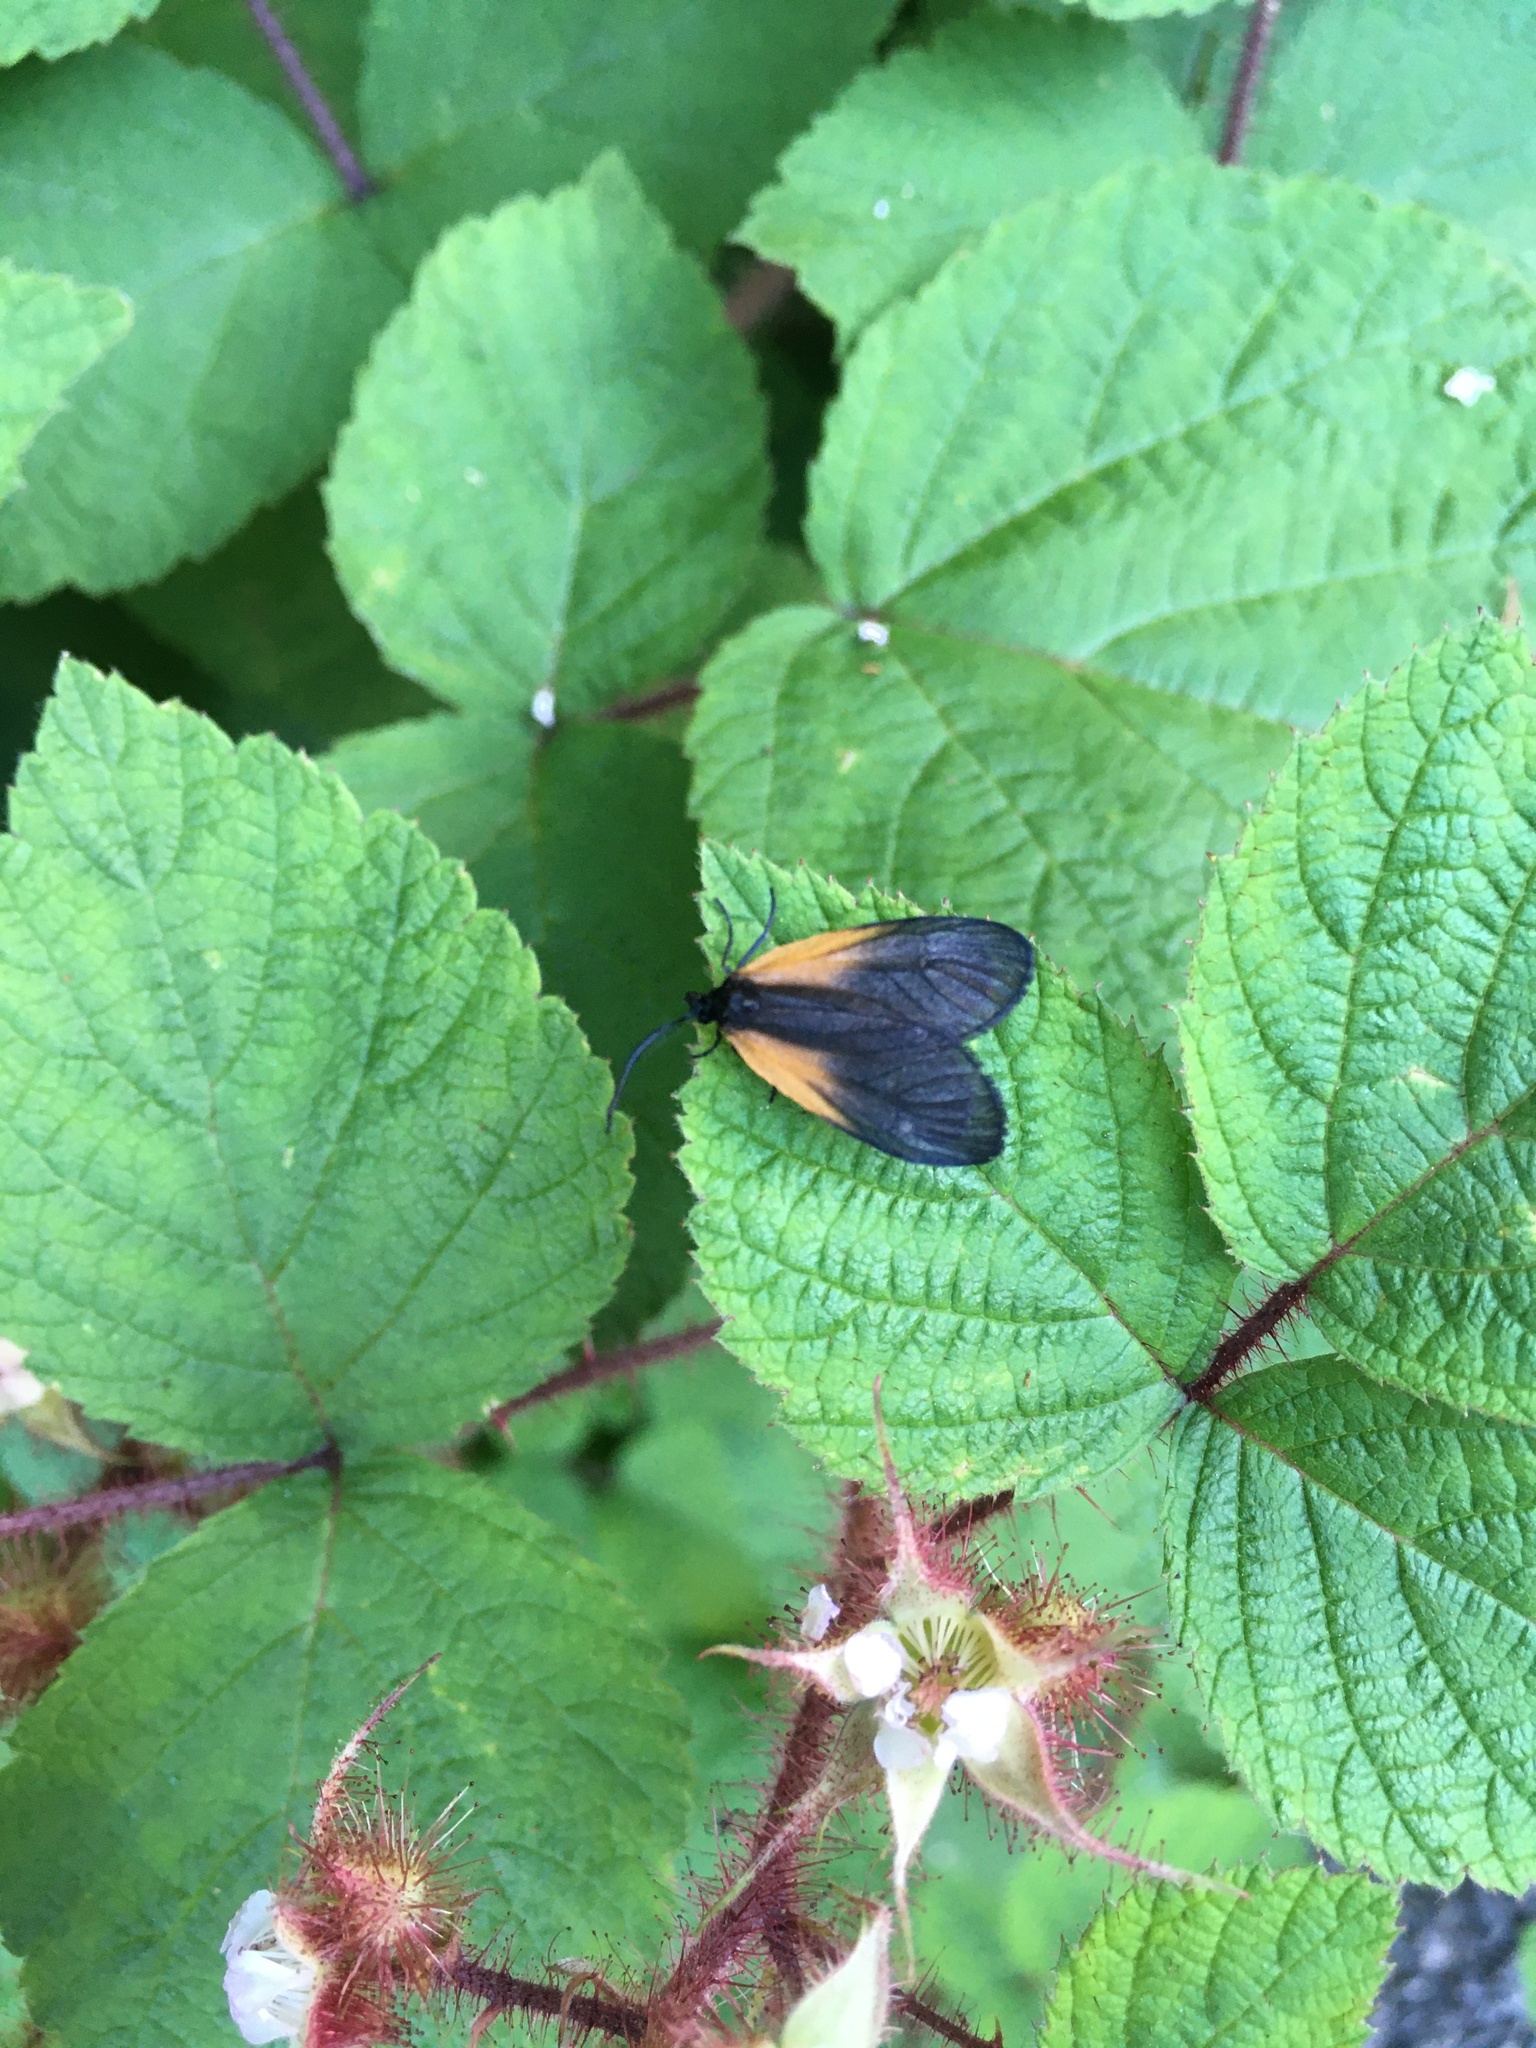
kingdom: Animalia
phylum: Arthropoda
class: Insecta
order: Lepidoptera
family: Zygaenidae
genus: Malthaca
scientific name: Malthaca dimidiata
